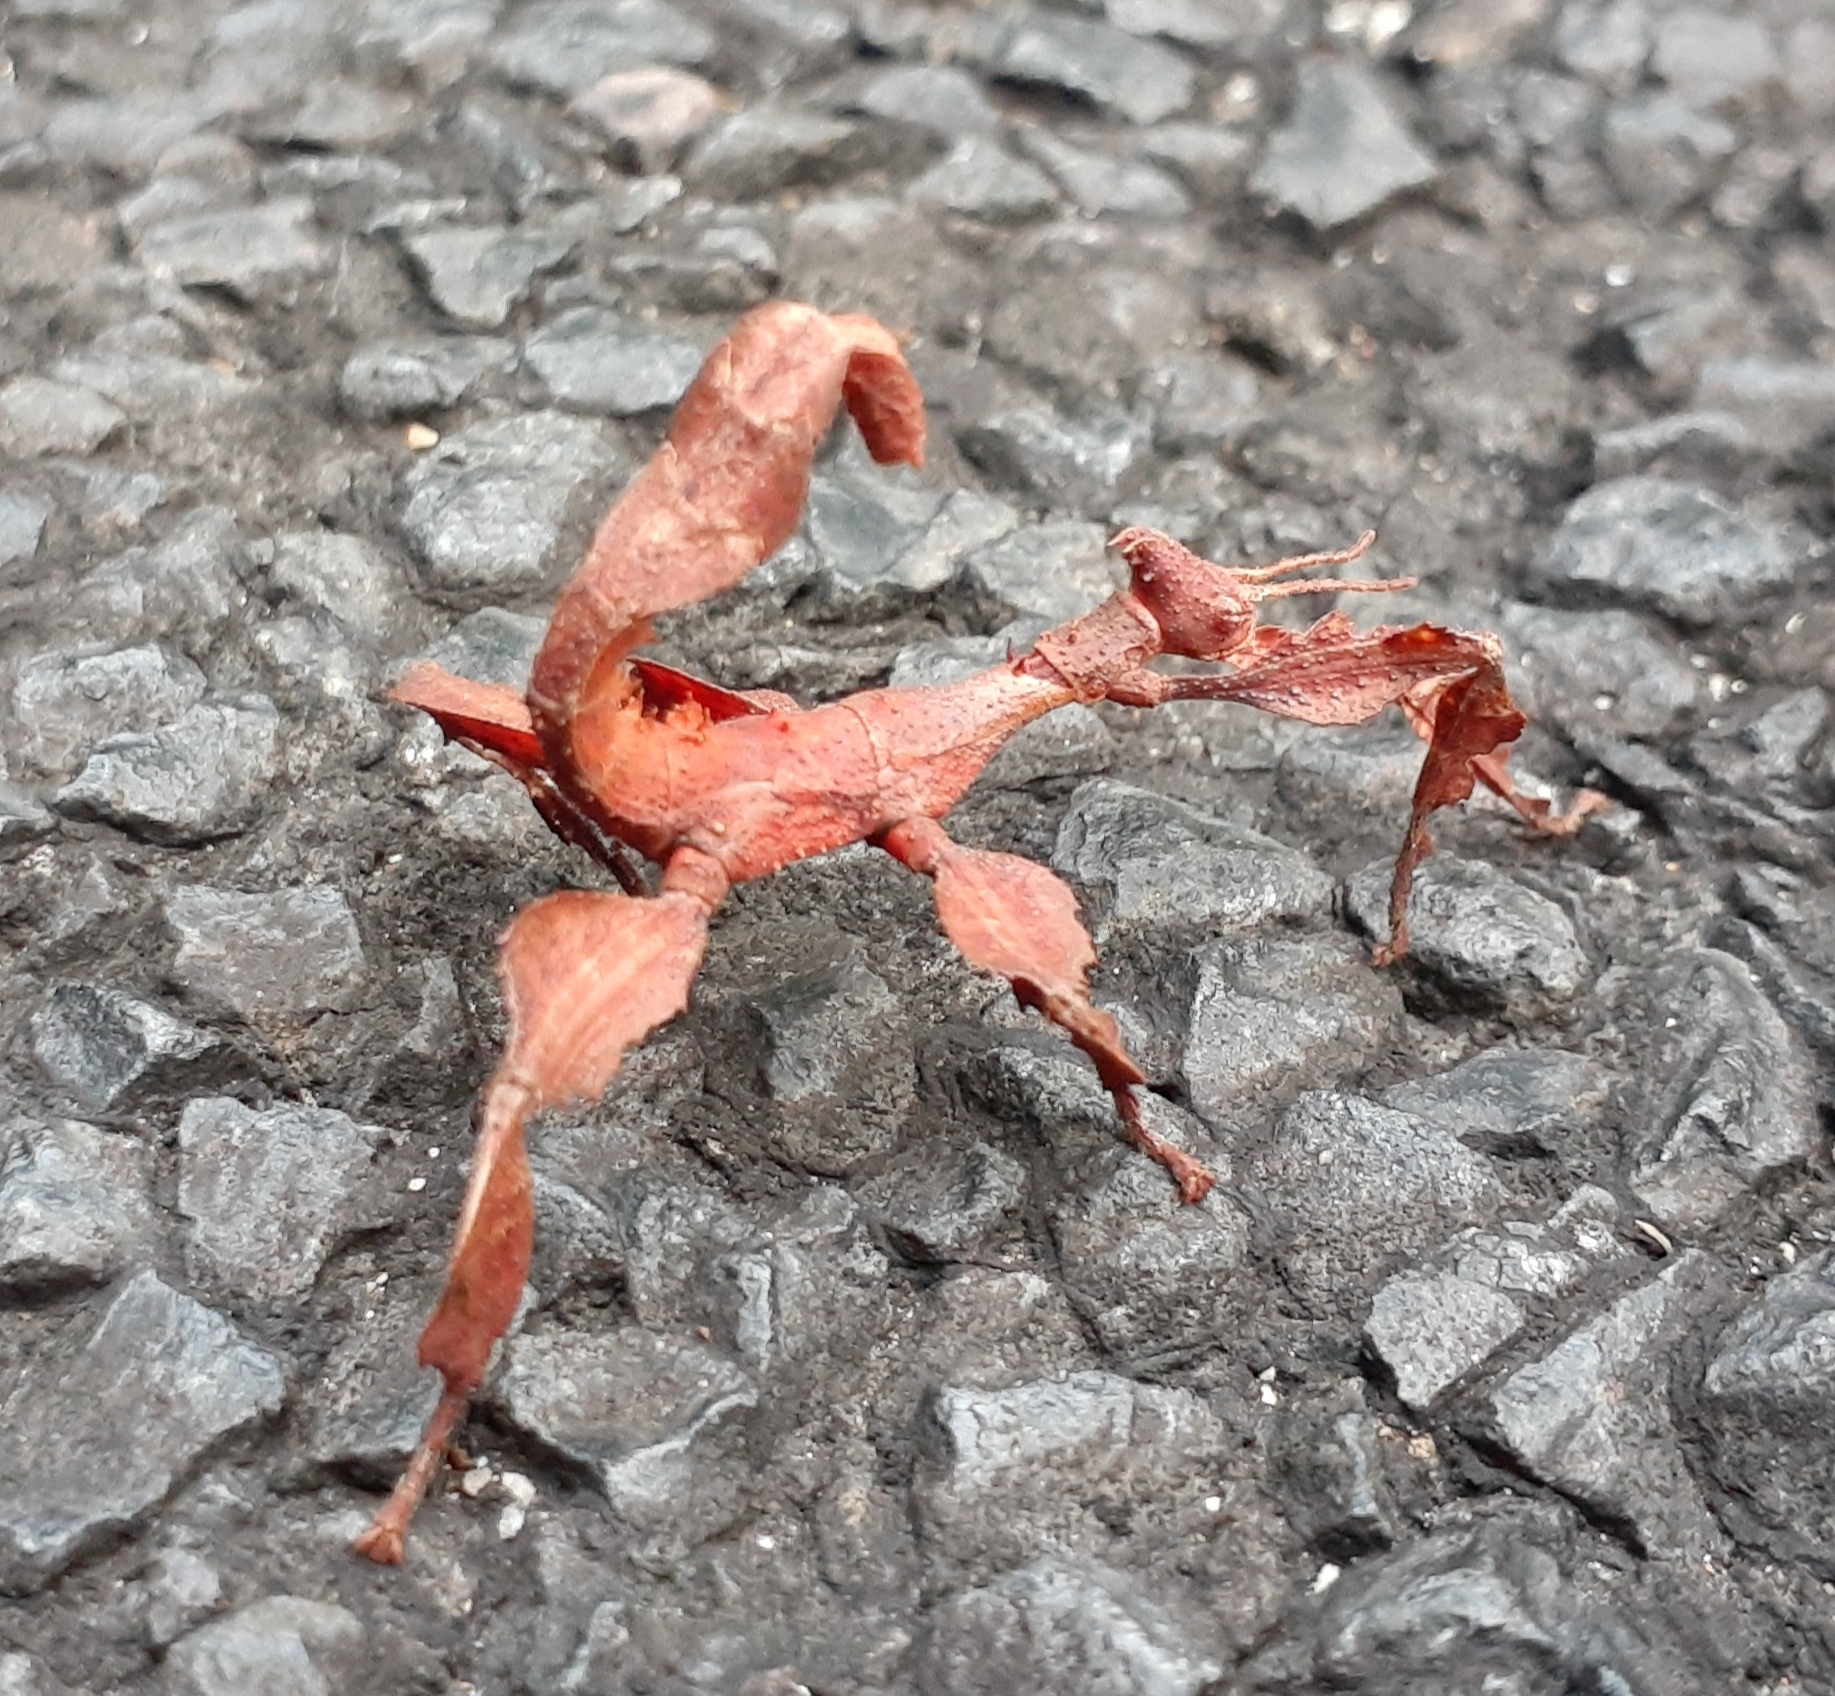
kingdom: Animalia
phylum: Arthropoda
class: Insecta
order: Phasmida
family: Phasmatidae
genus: Extatosoma
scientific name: Extatosoma tiaratum
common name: Macleay's spectre
